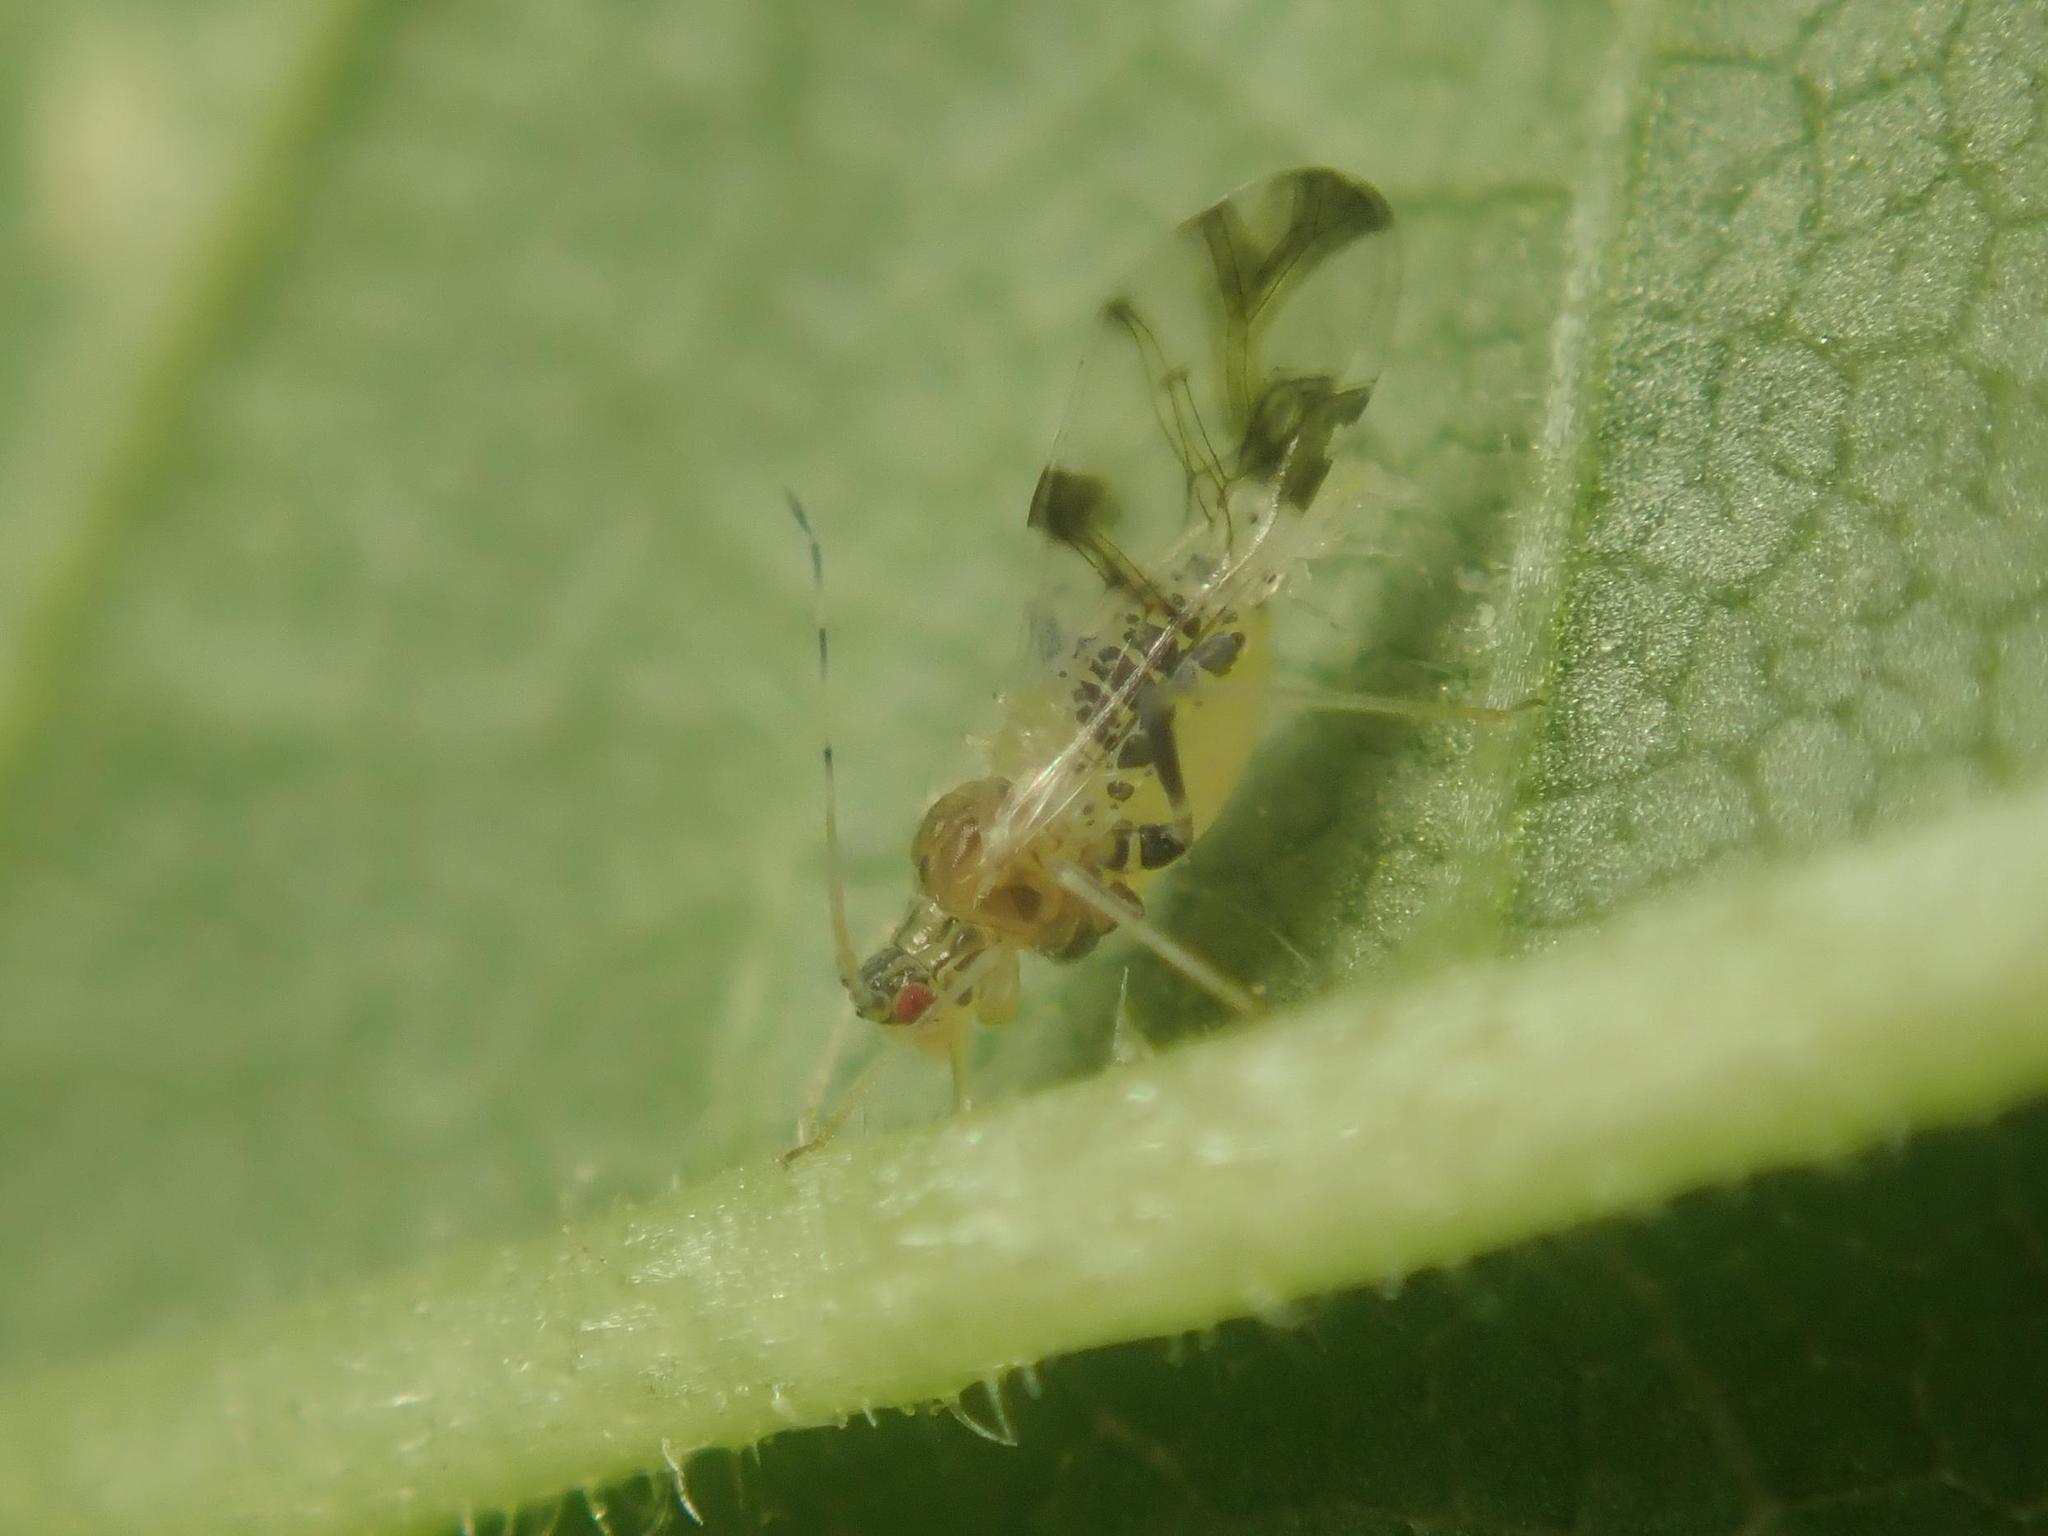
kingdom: Animalia
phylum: Arthropoda
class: Insecta
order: Hemiptera
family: Aphididae
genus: Tinocallis
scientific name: Tinocallis platani
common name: Elm aphid
